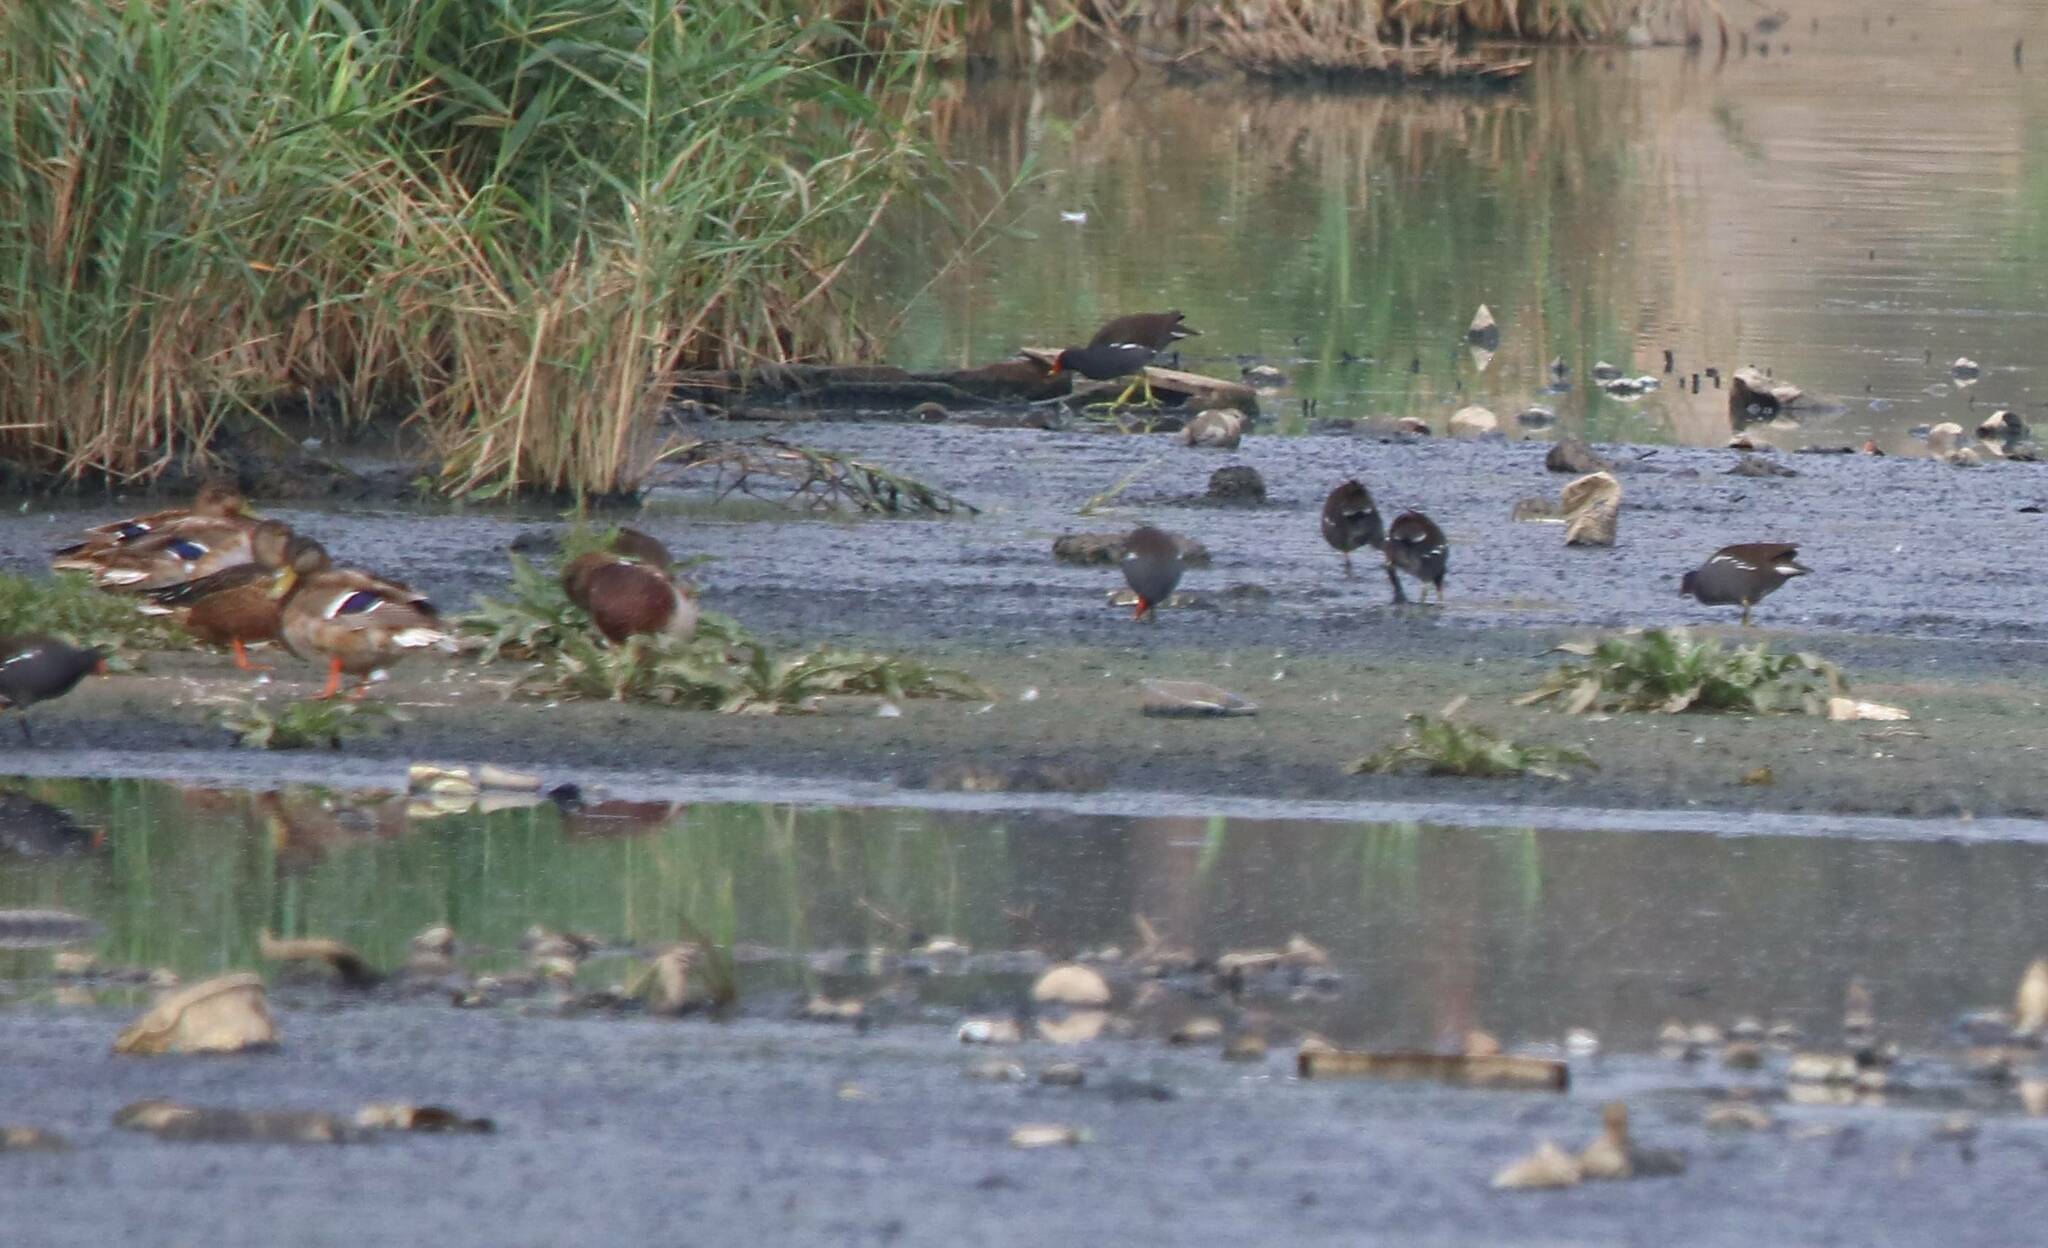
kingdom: Animalia
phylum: Chordata
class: Aves
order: Anseriformes
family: Anatidae
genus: Anas
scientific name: Anas platyrhynchos
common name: Mallard
